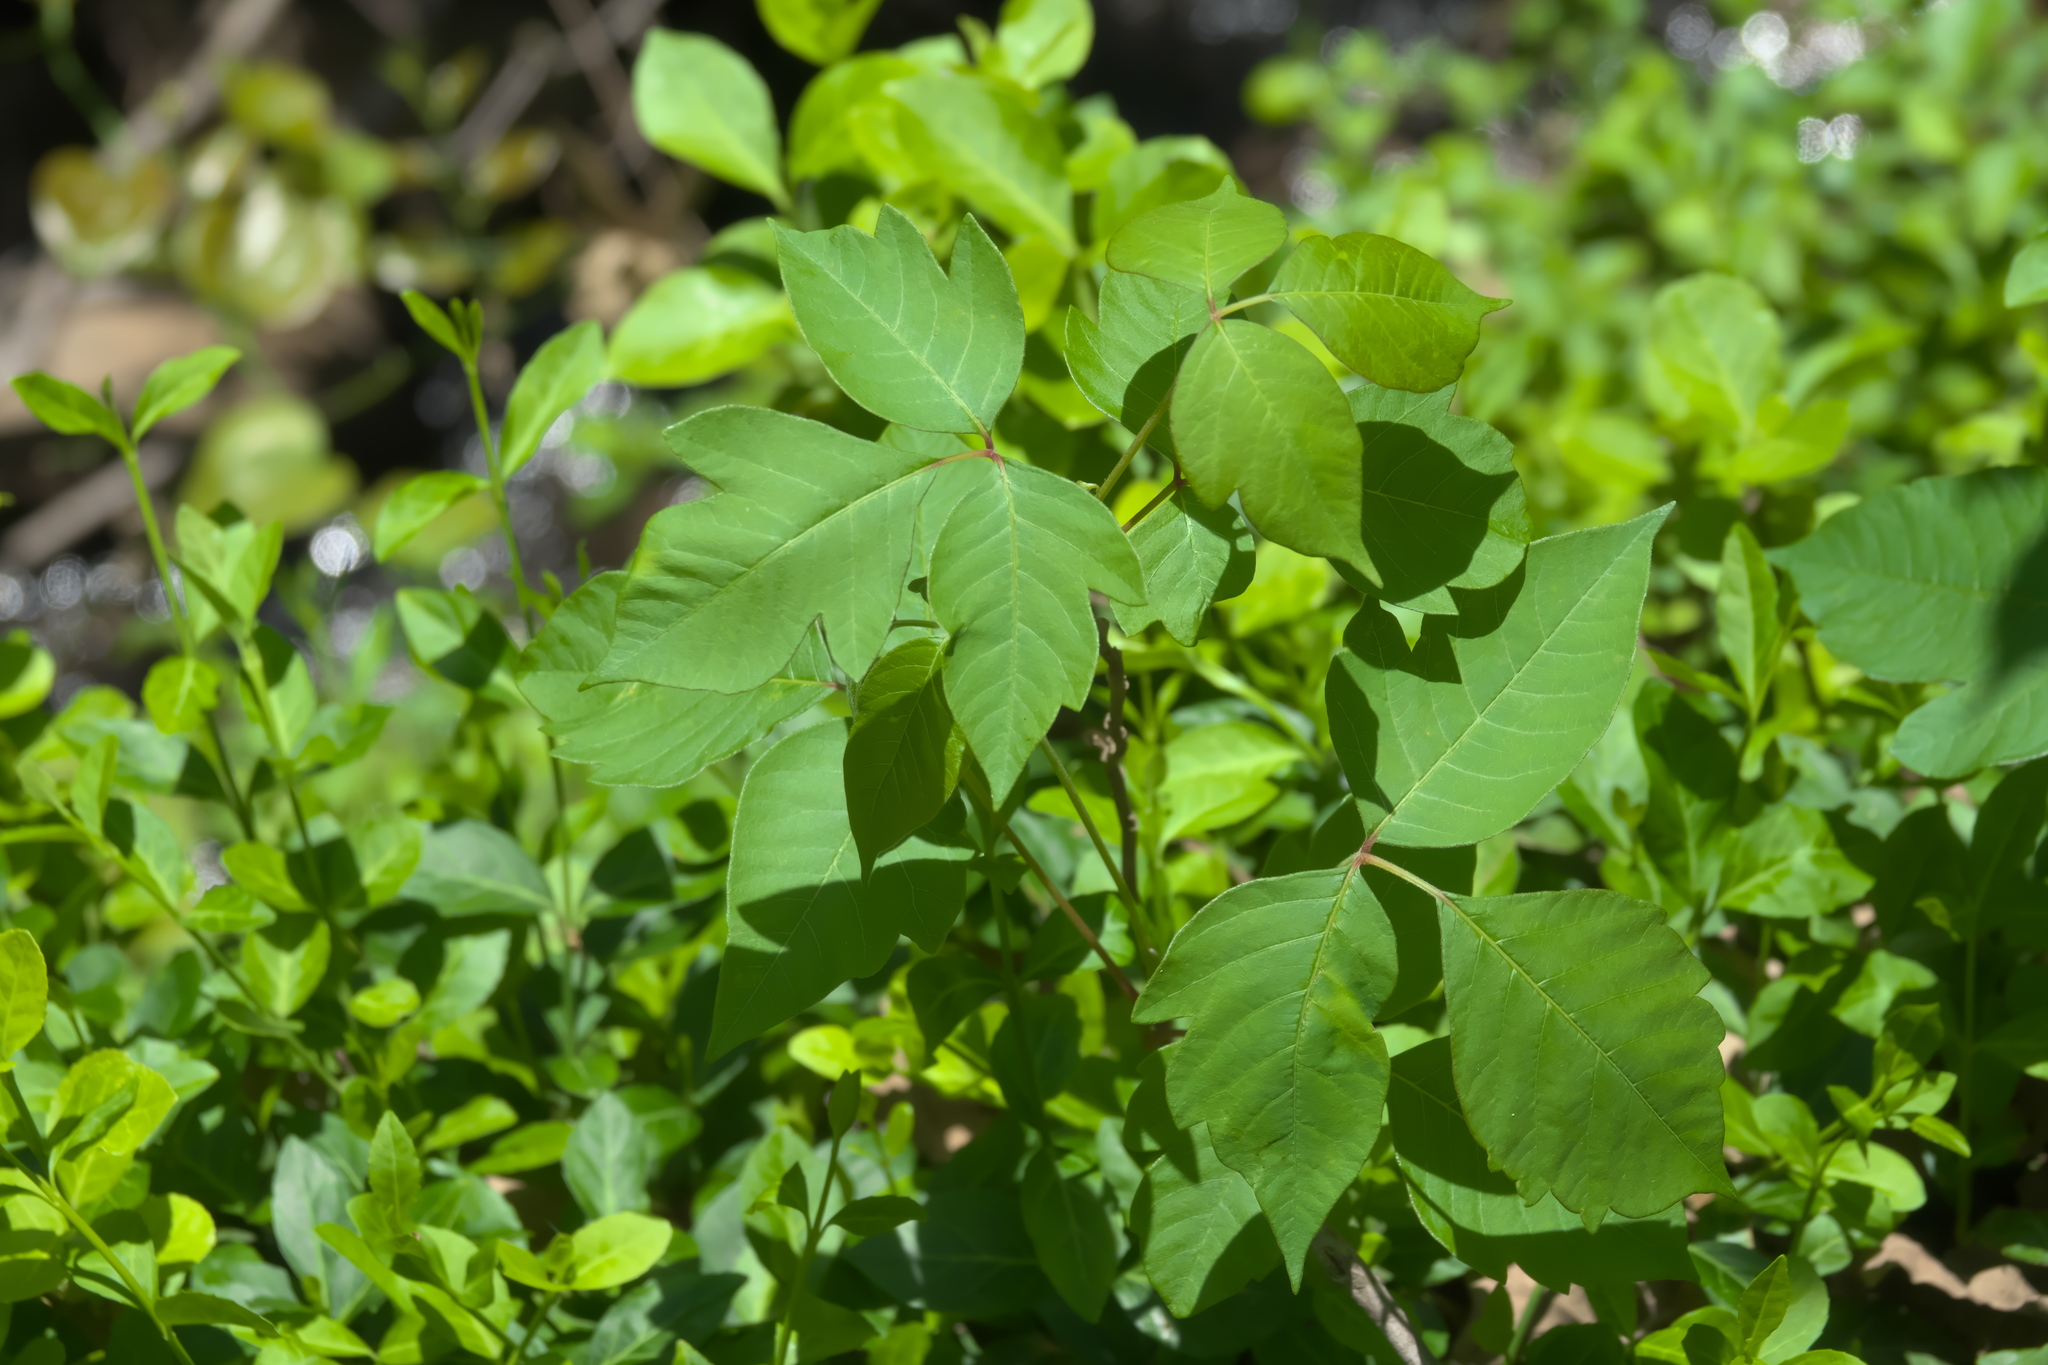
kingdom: Plantae
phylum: Tracheophyta
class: Magnoliopsida
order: Sapindales
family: Anacardiaceae
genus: Toxicodendron
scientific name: Toxicodendron radicans
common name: Poison ivy
